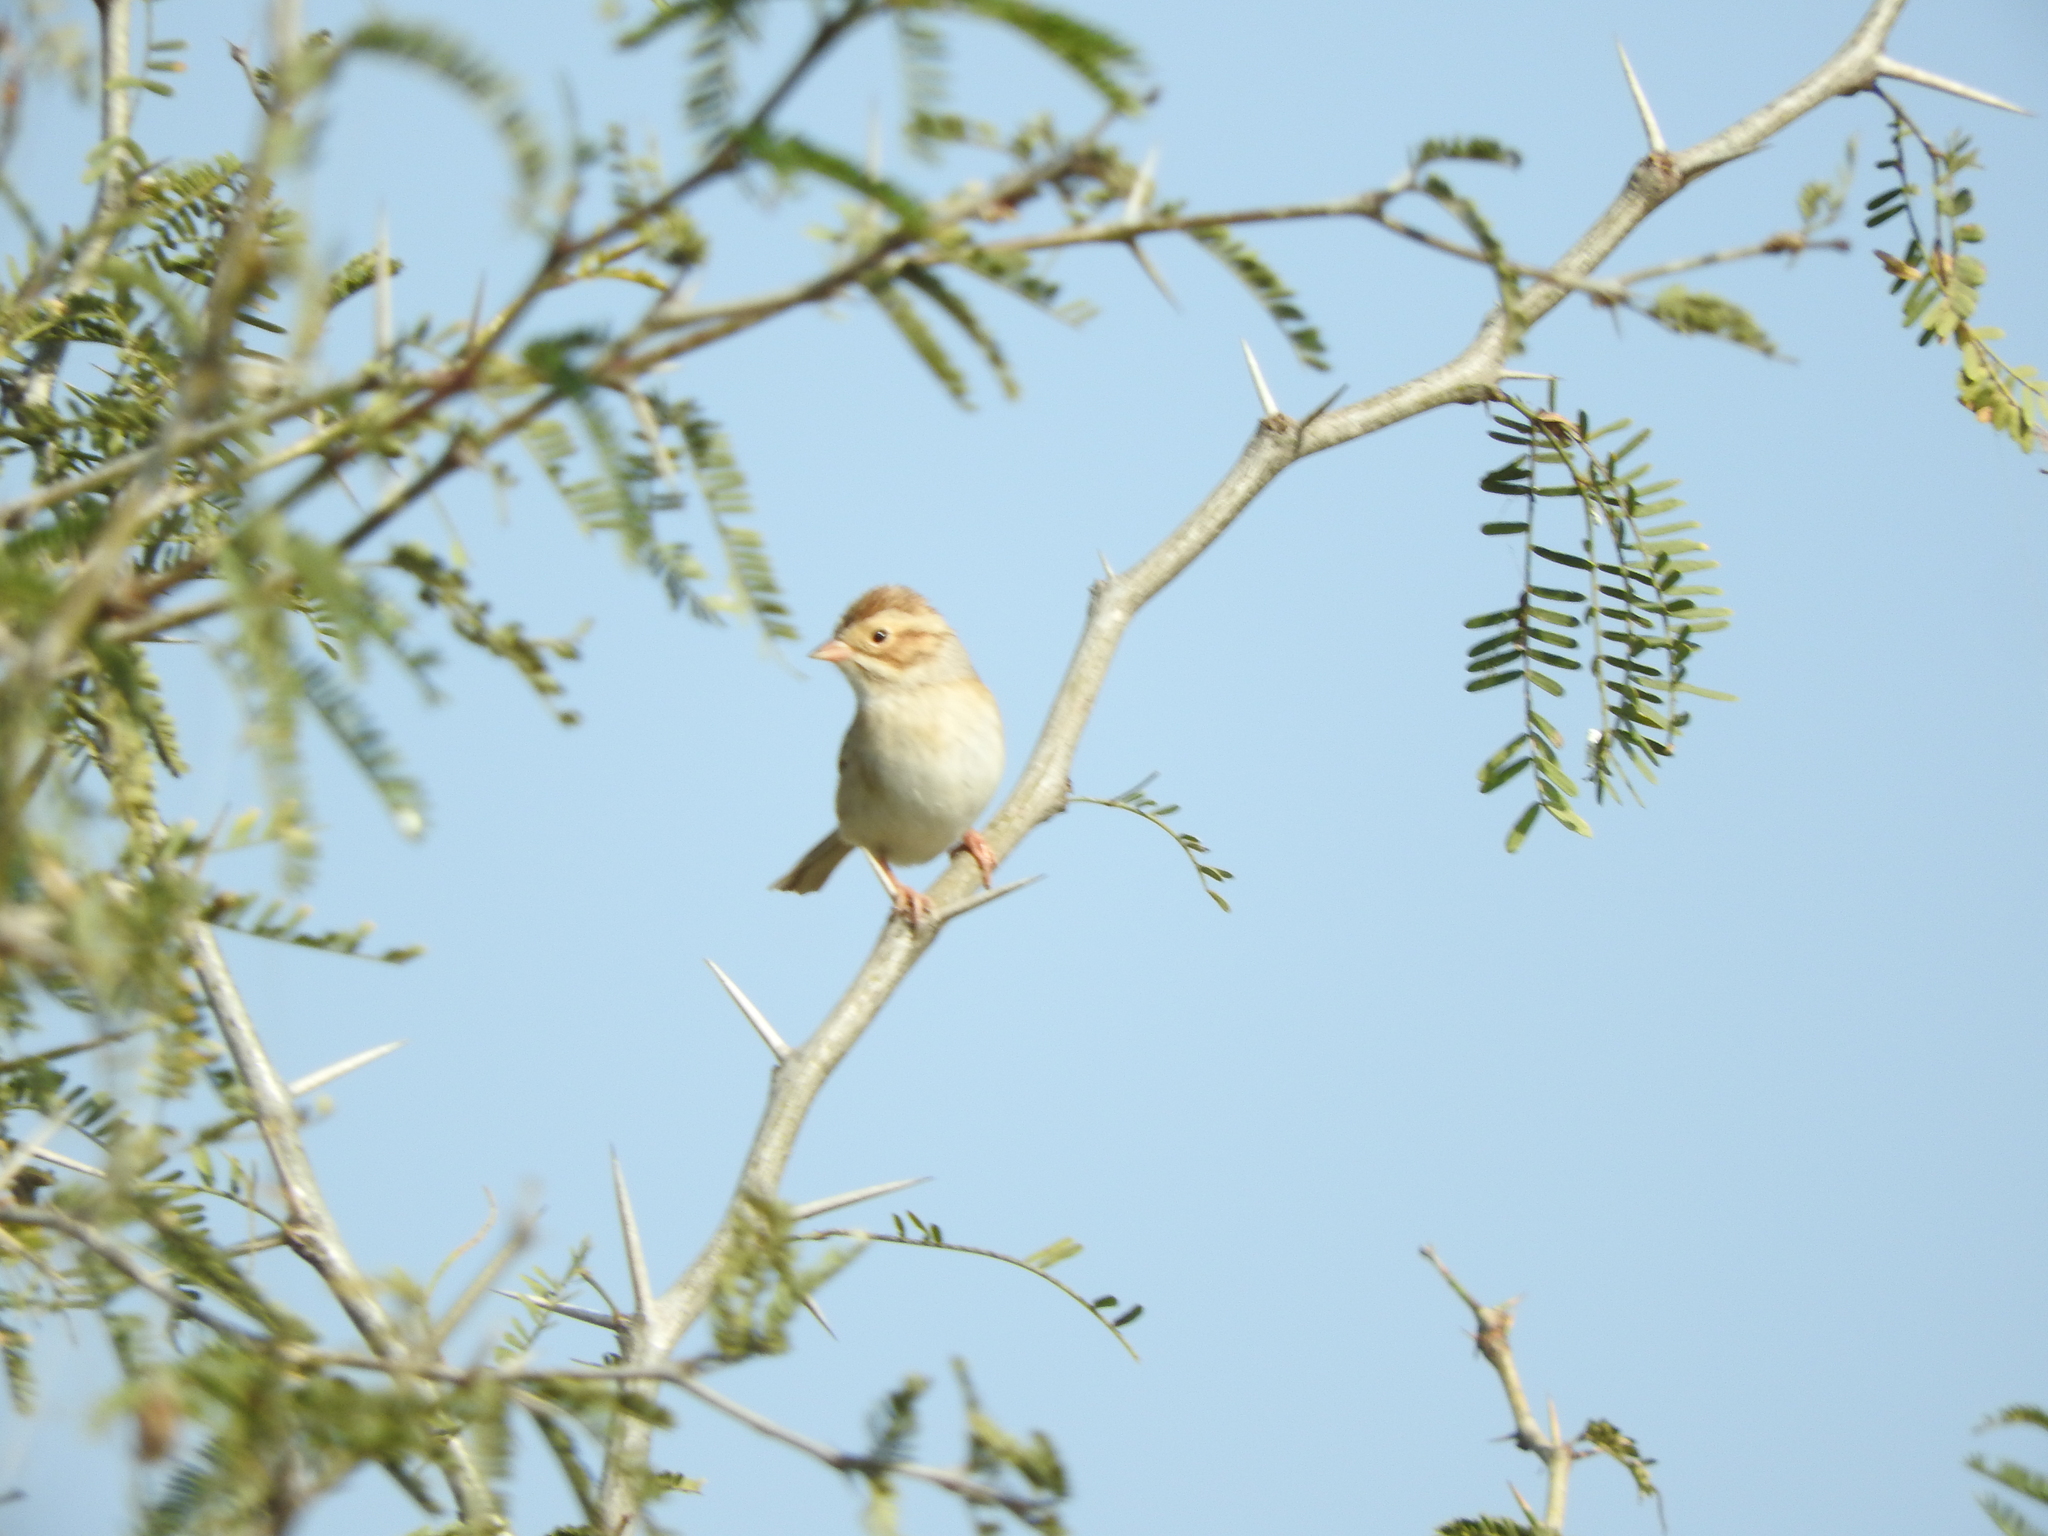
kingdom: Animalia
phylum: Chordata
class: Aves
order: Passeriformes
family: Passerellidae
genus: Spizella
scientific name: Spizella pallida
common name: Clay-colored sparrow
